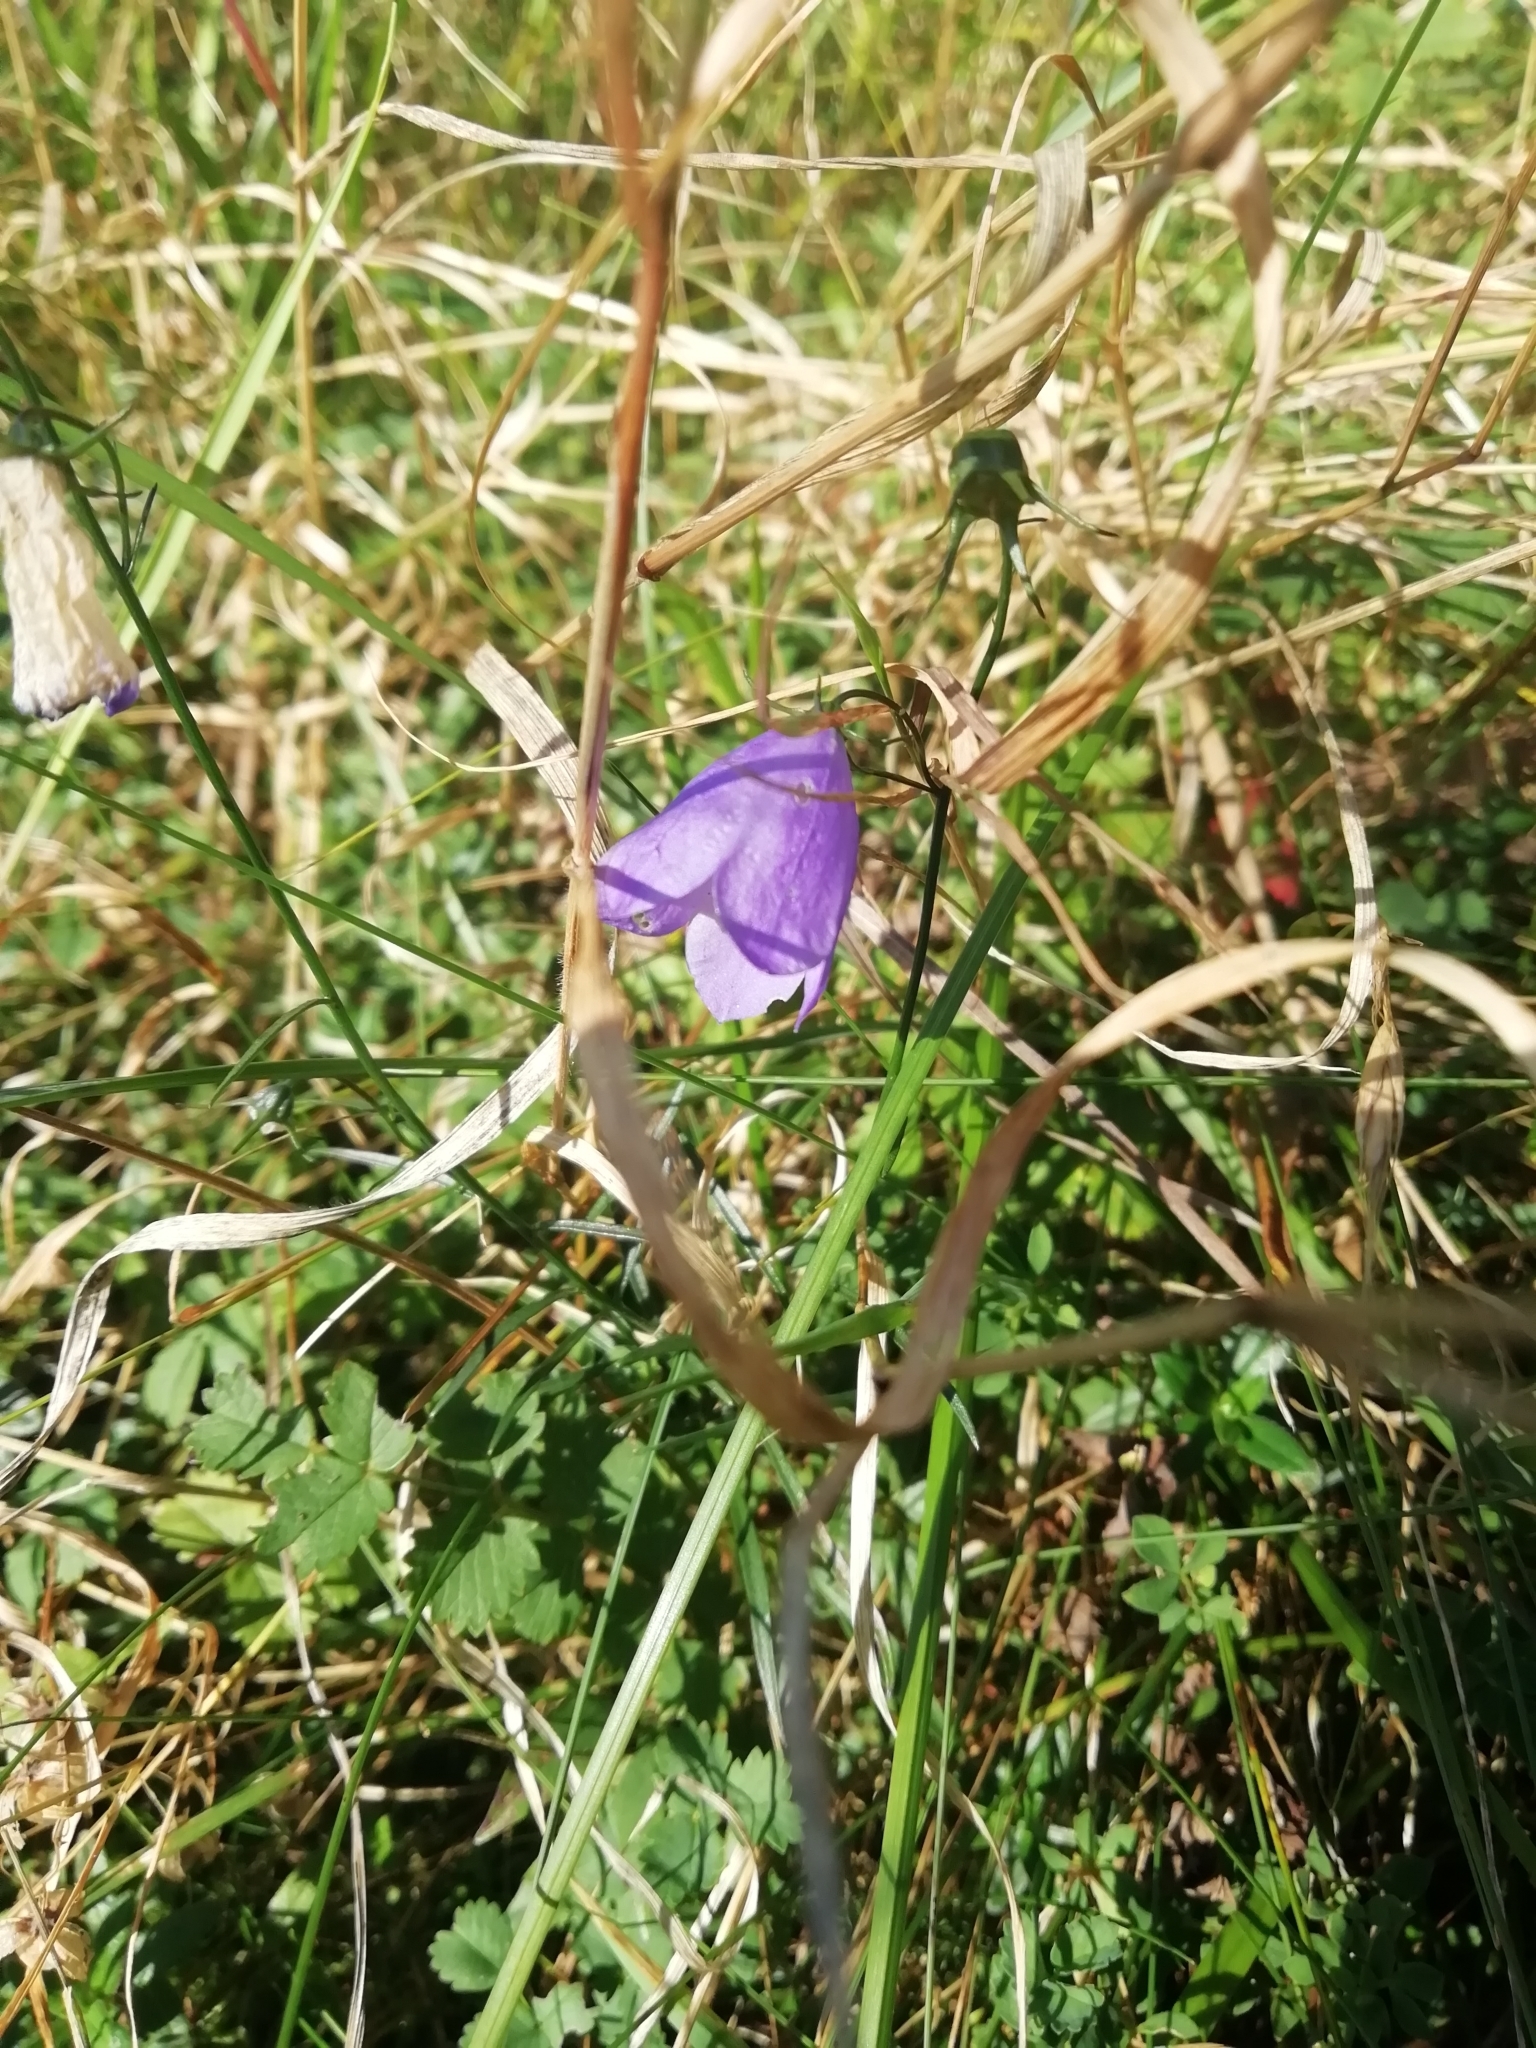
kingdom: Plantae
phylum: Tracheophyta
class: Magnoliopsida
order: Asterales
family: Campanulaceae
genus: Campanula
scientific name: Campanula rotundifolia
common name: Harebell
